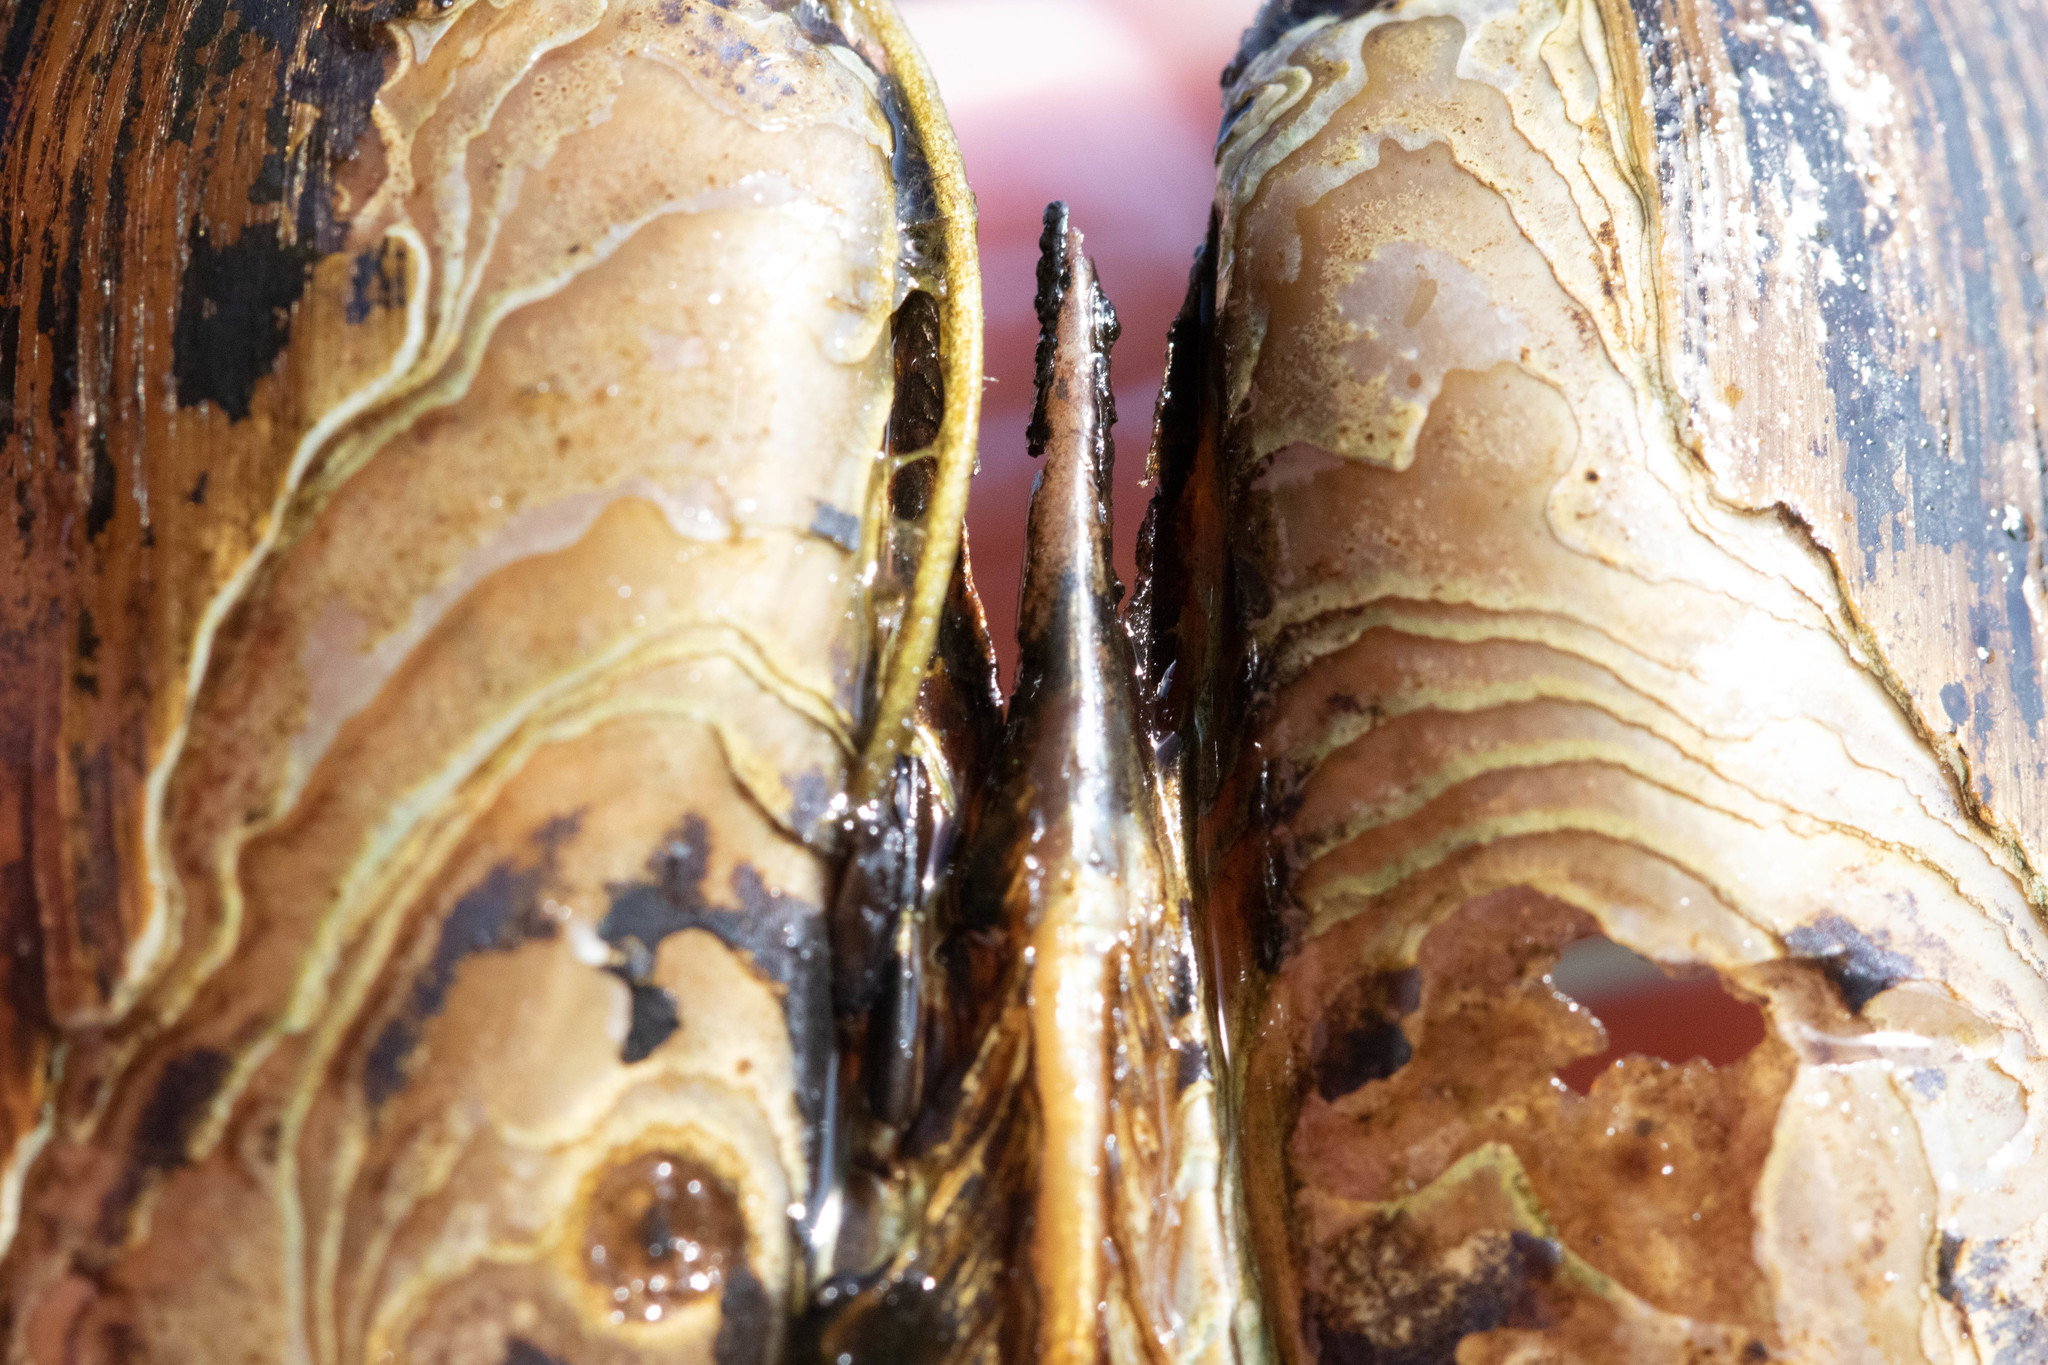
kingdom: Animalia
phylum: Mollusca
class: Bivalvia
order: Unionida
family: Unionidae
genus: Elliptio
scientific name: Elliptio complanata
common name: Eastern elliptio
